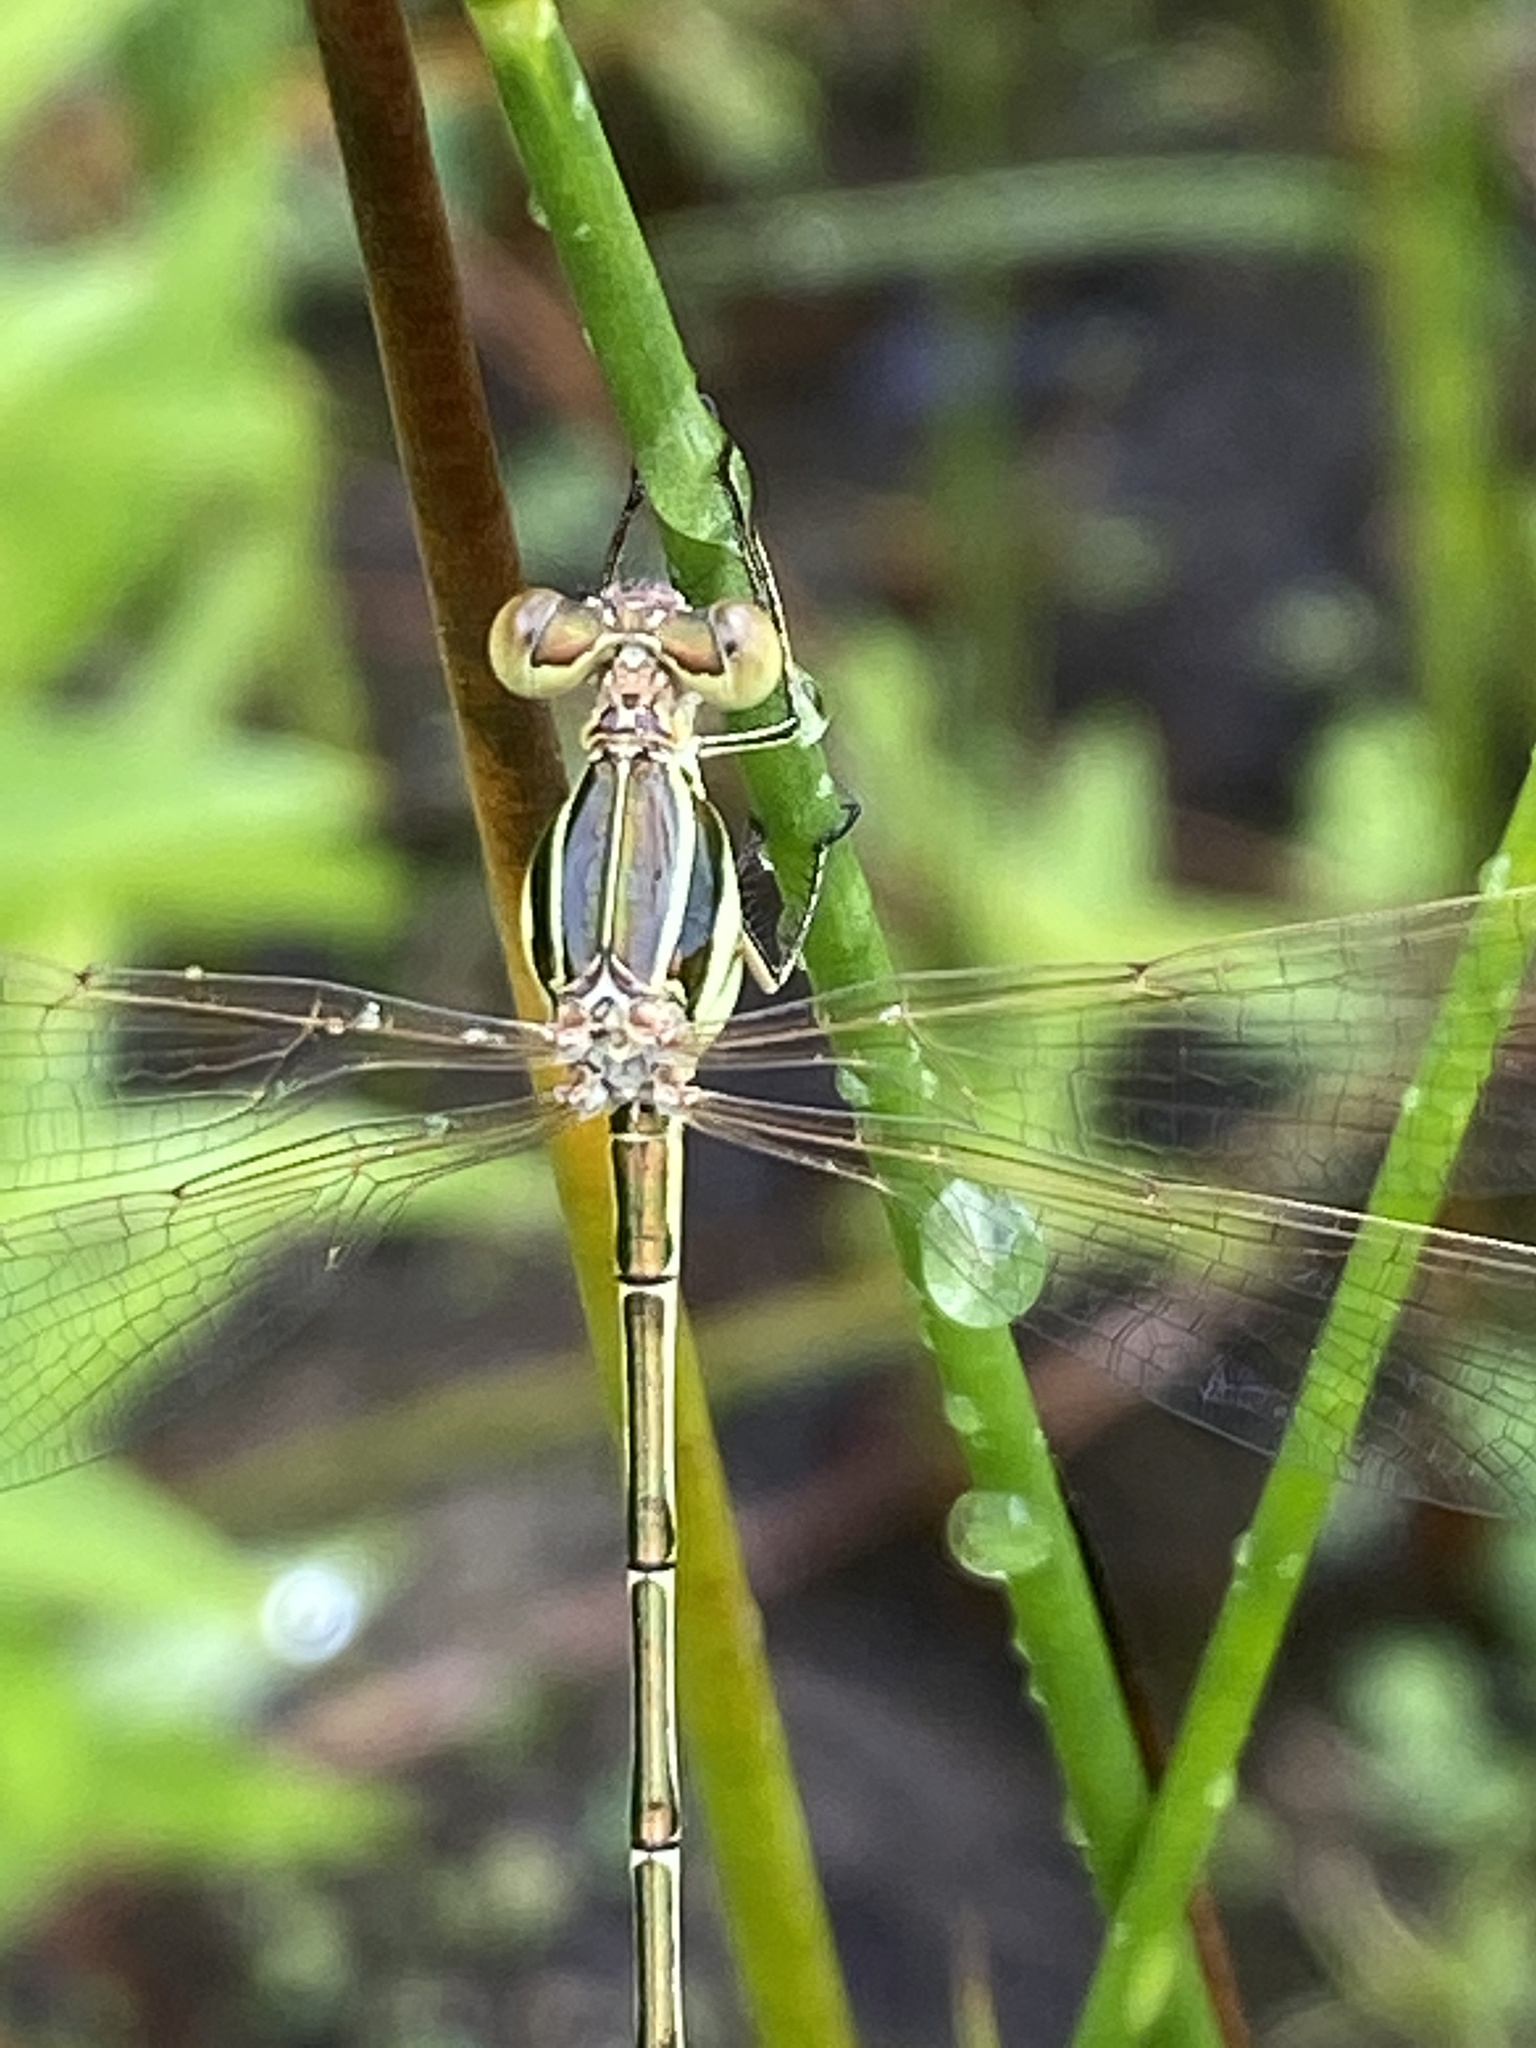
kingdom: Animalia
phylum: Arthropoda
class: Insecta
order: Odonata
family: Lestidae
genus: Lestes
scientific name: Lestes barbarus
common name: Migrant spreadwing
